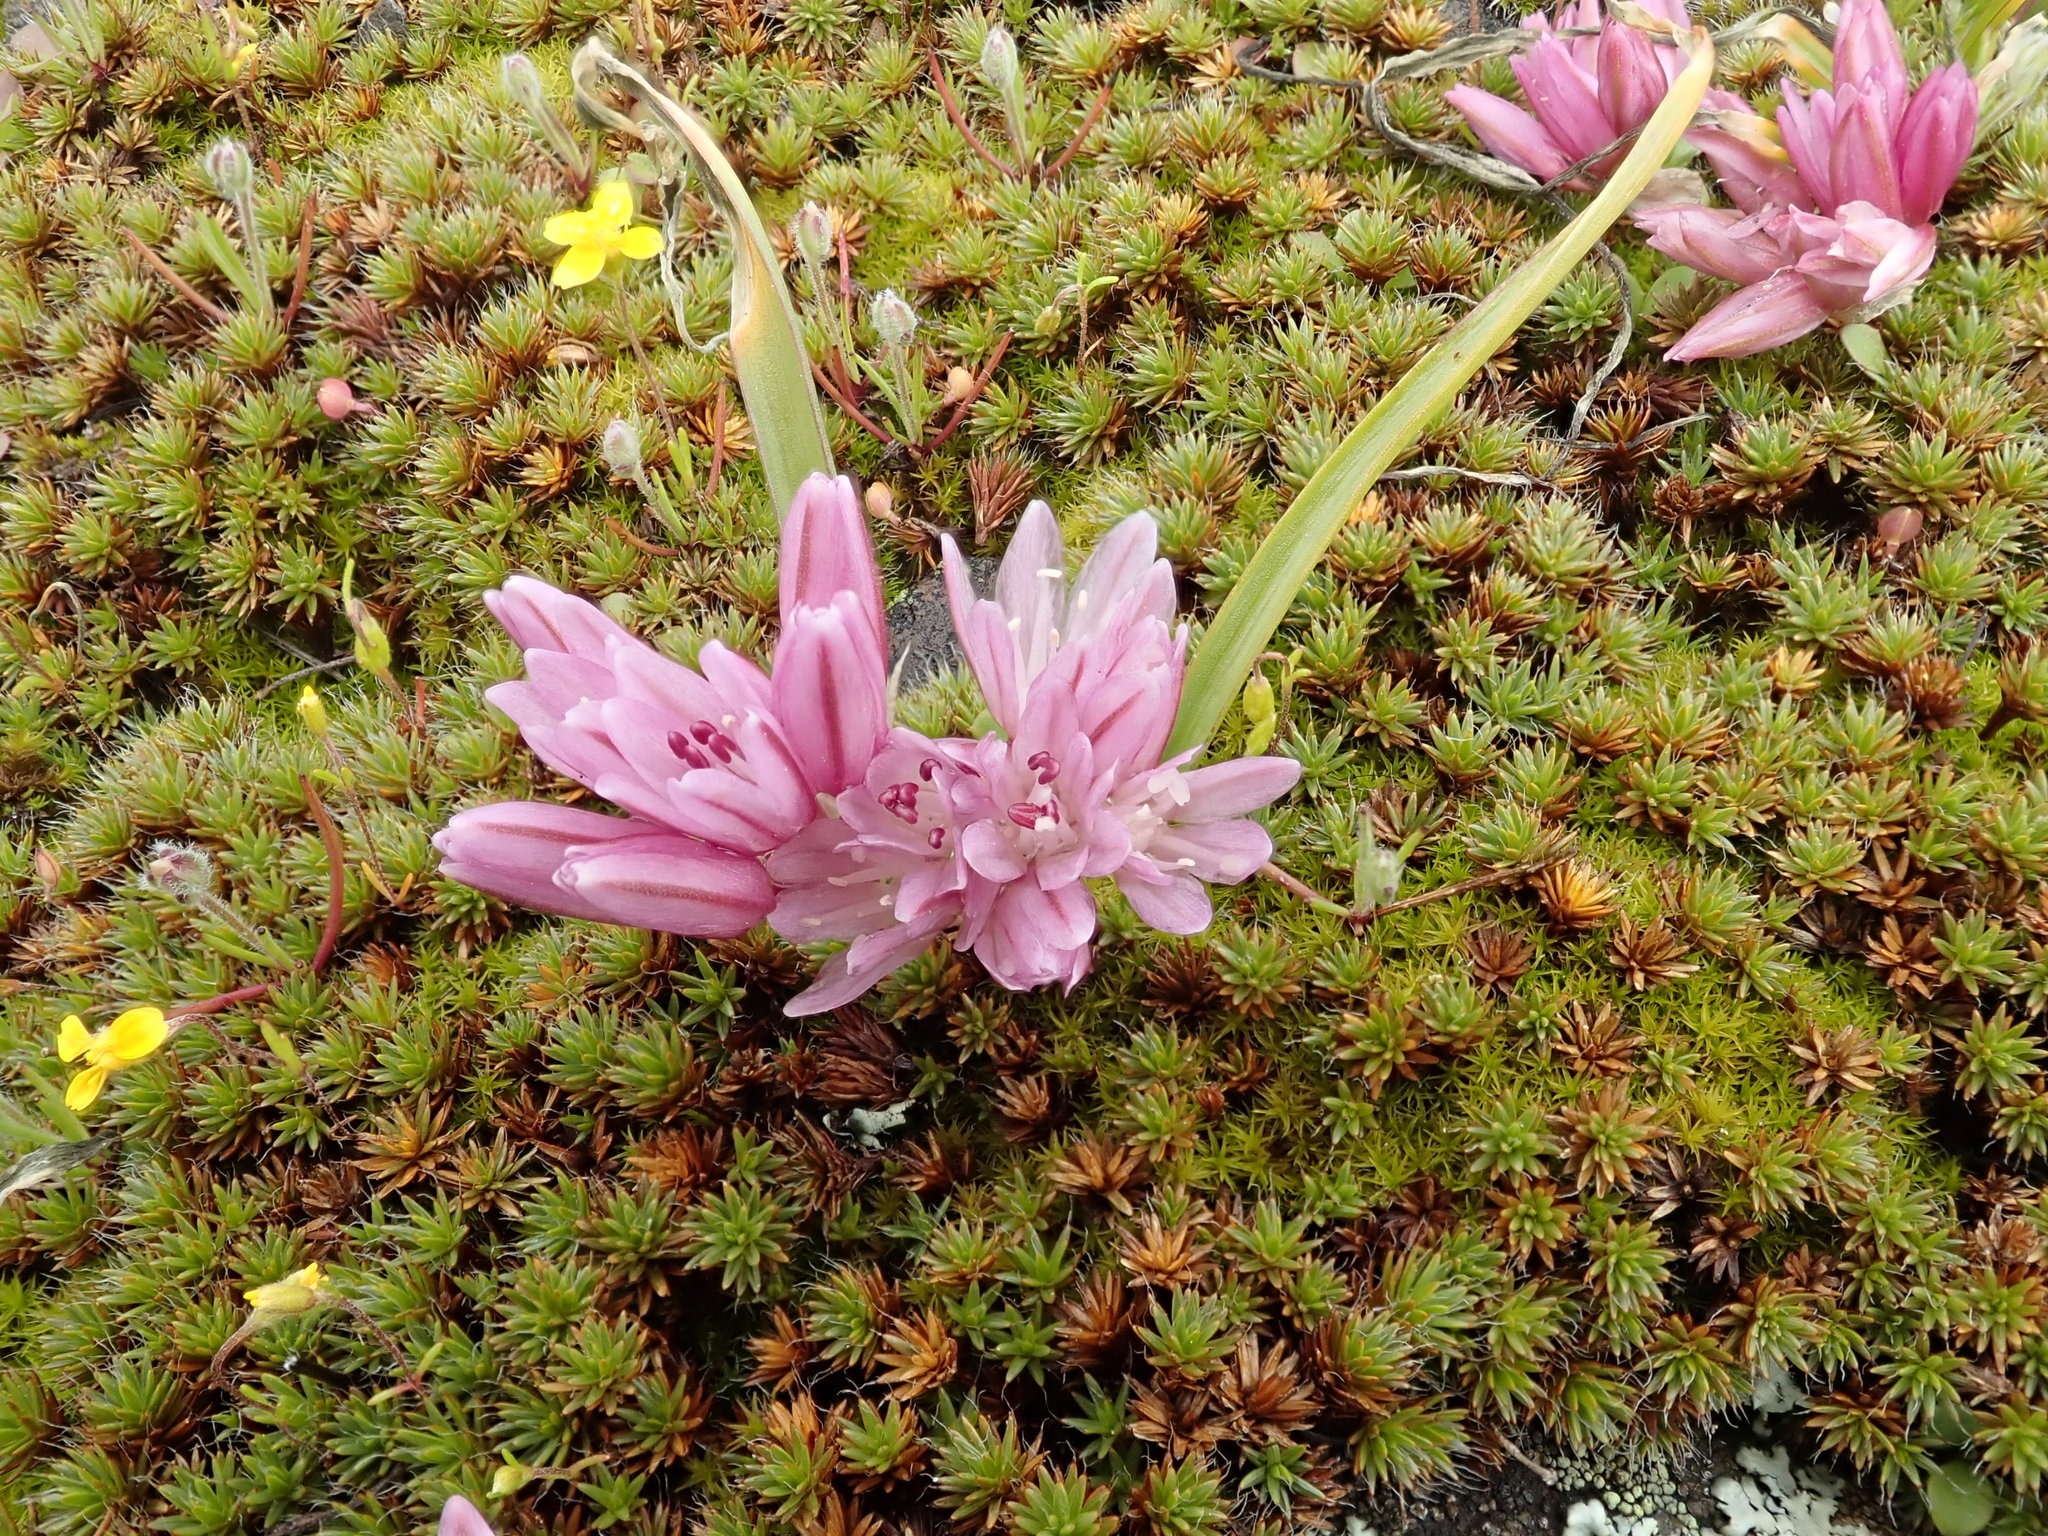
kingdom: Plantae
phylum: Tracheophyta
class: Liliopsida
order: Asparagales
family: Amaryllidaceae
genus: Allium
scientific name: Allium cratericola
